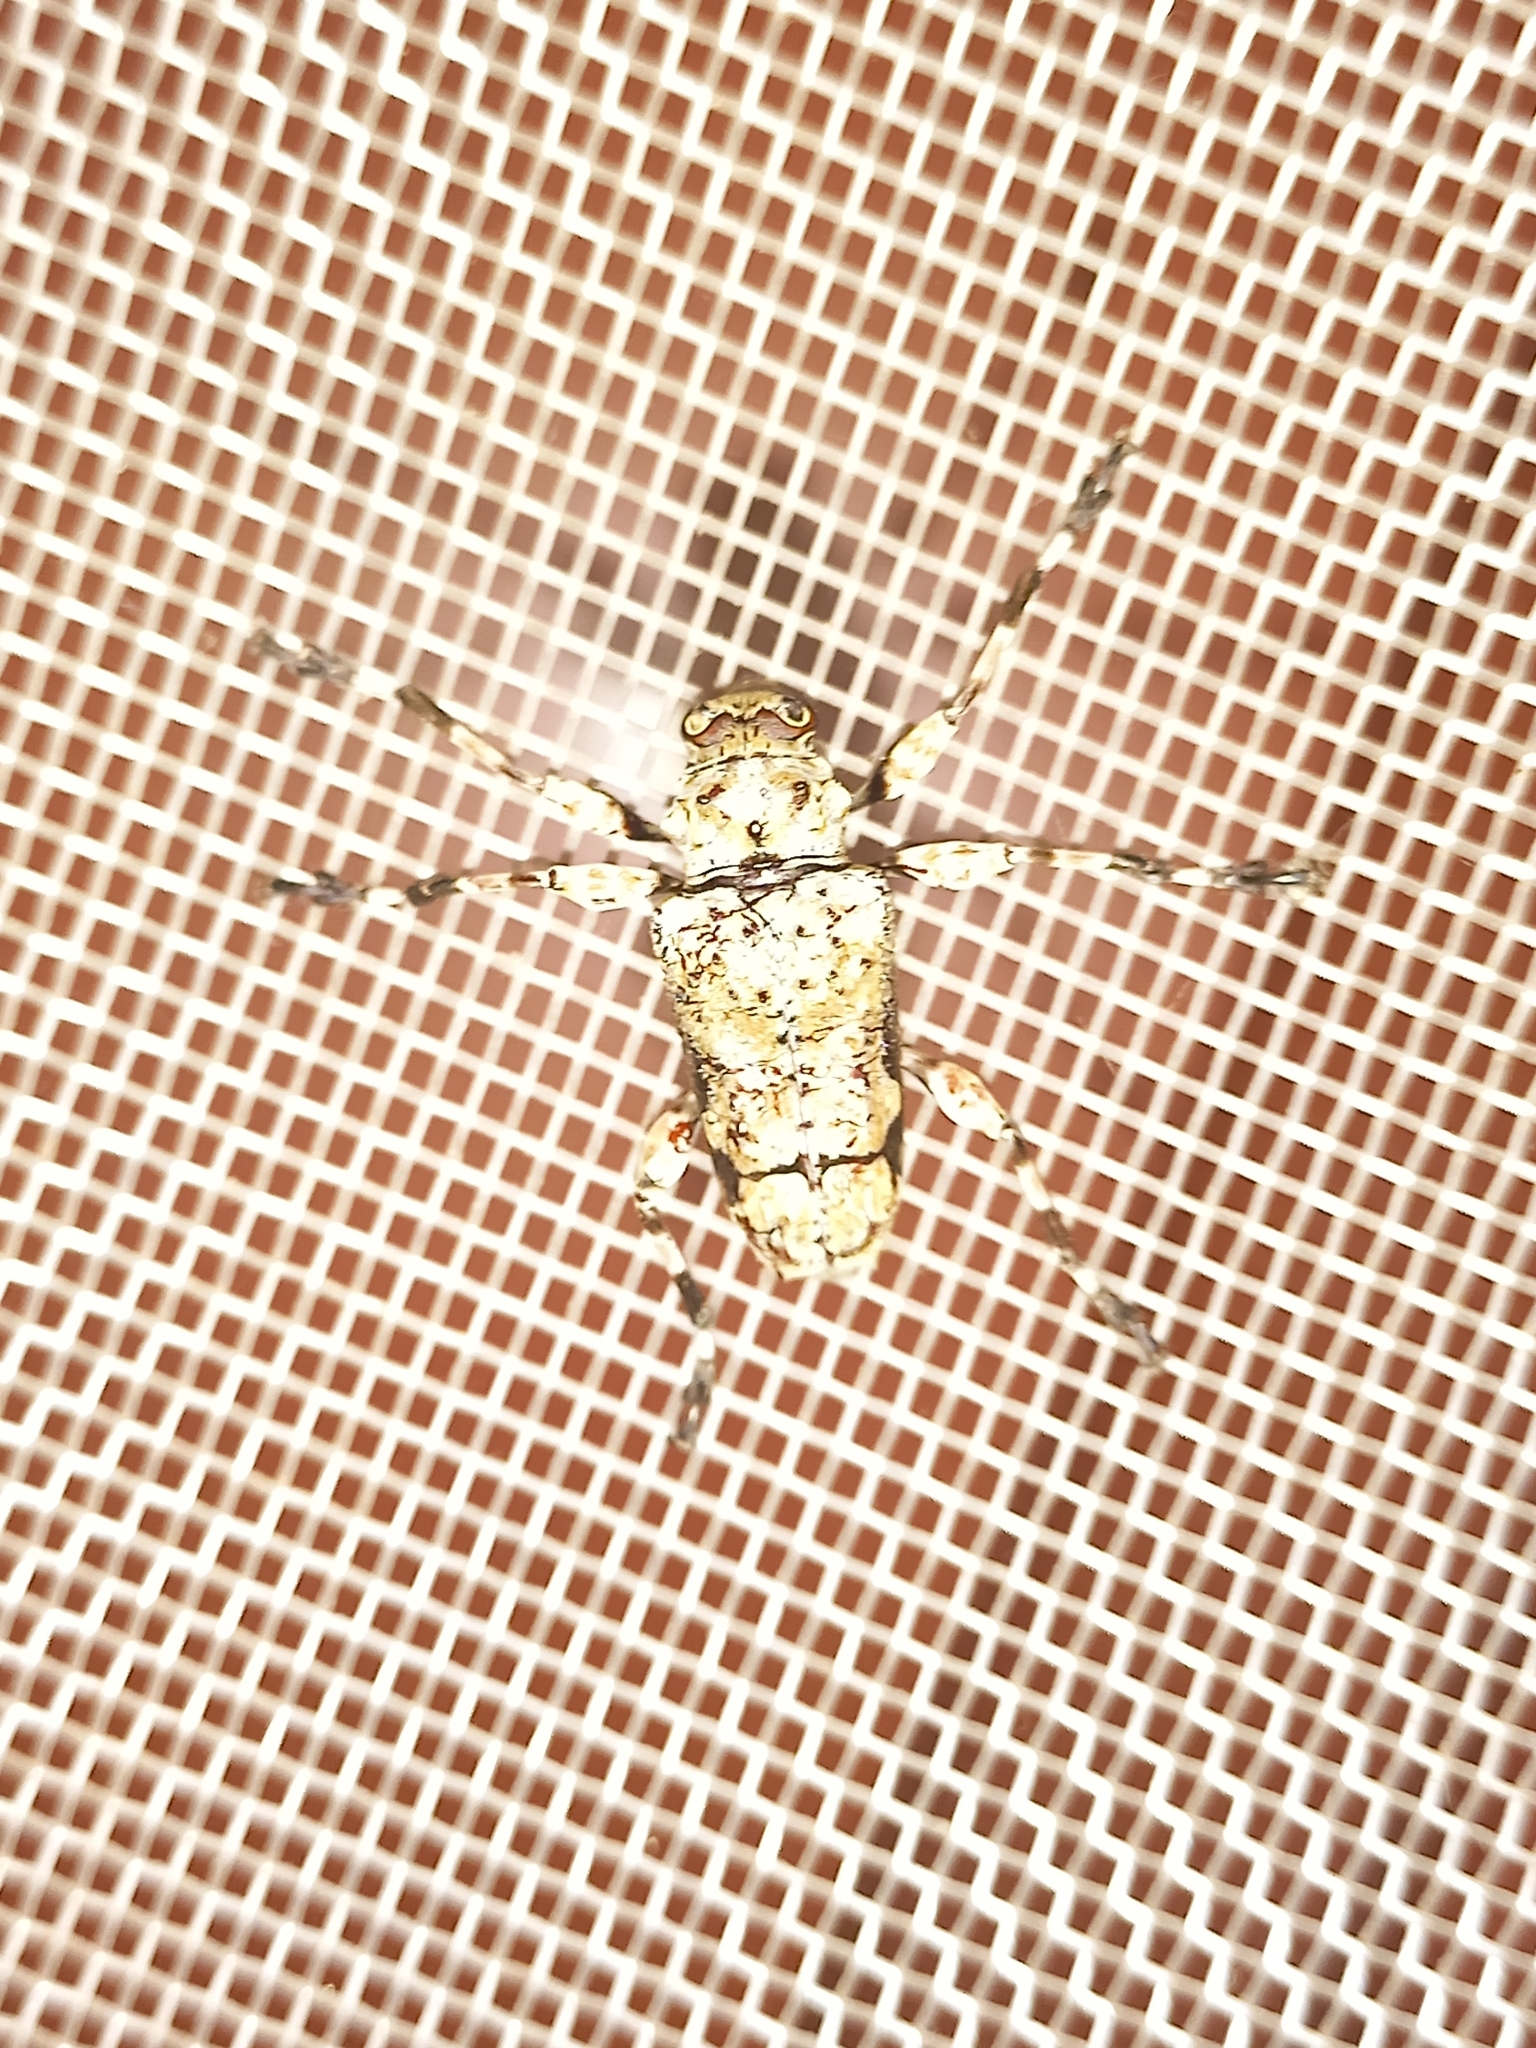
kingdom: Animalia
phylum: Arthropoda
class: Insecta
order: Coleoptera
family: Cerambycidae
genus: Oreodera
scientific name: Oreodera glauca
